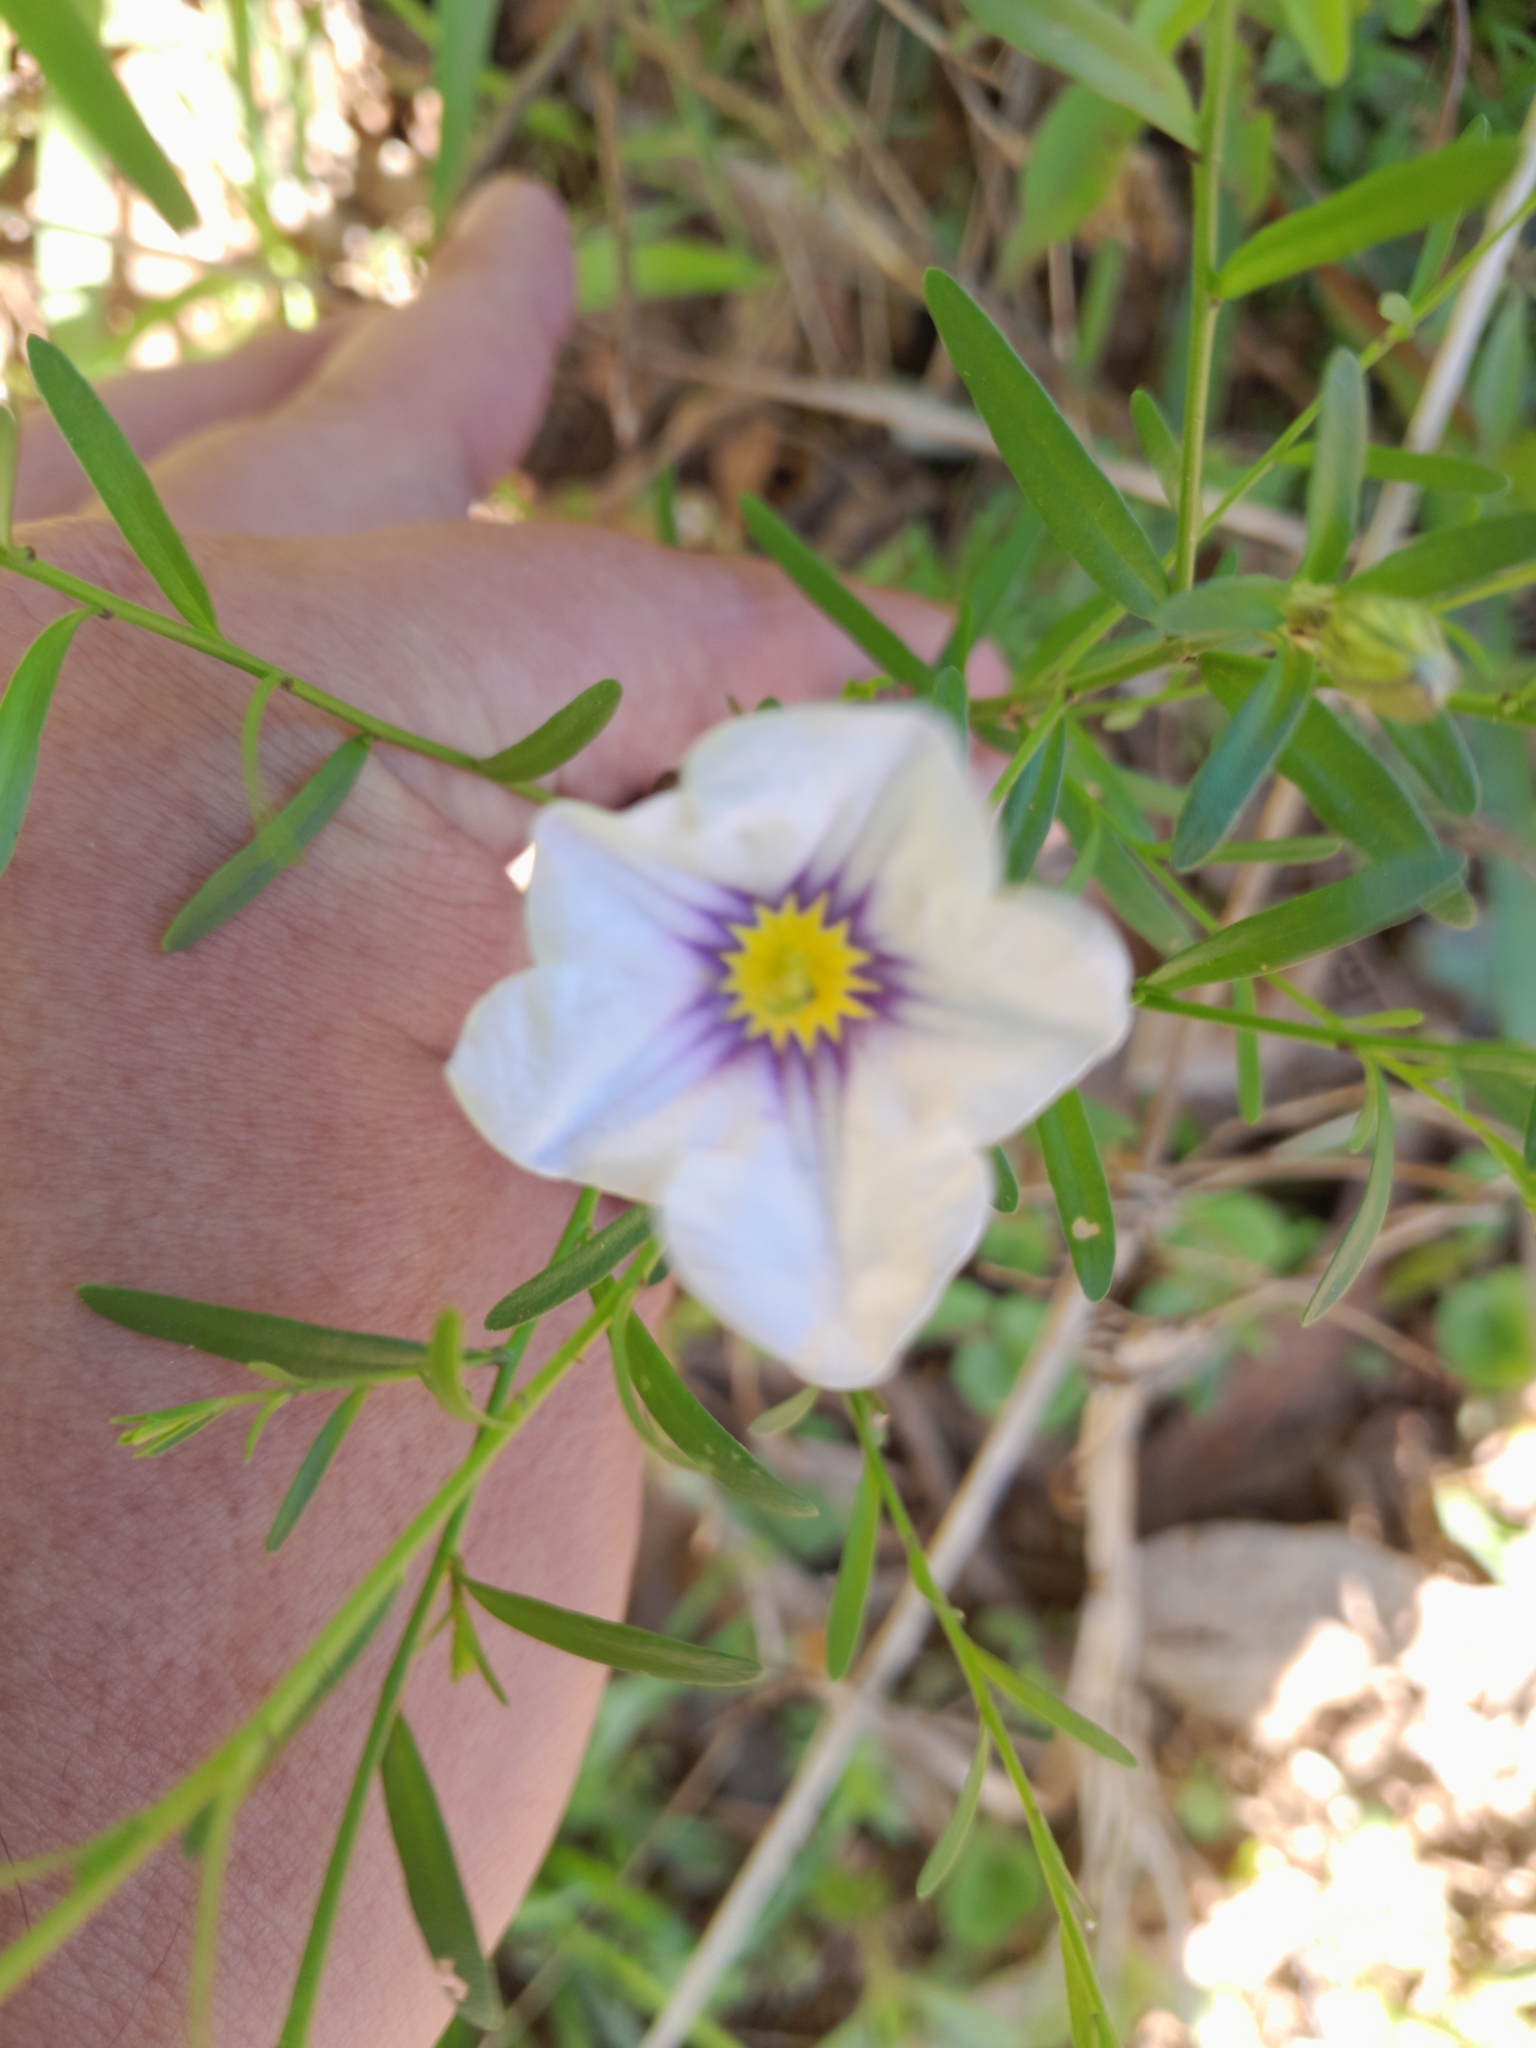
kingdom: Plantae
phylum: Tracheophyta
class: Magnoliopsida
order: Solanales
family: Solanaceae
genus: Nierembergia
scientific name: Nierembergia scoparia
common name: Broom cupflower
